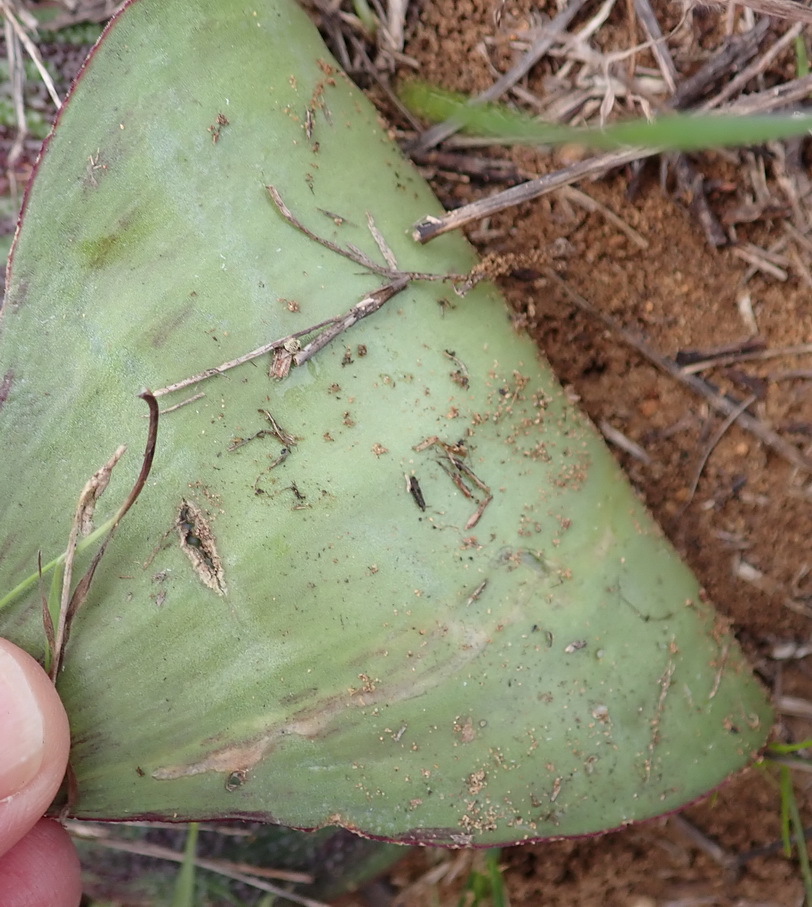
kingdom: Plantae
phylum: Tracheophyta
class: Liliopsida
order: Asparagales
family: Asparagaceae
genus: Massonia
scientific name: Massonia pustulata
